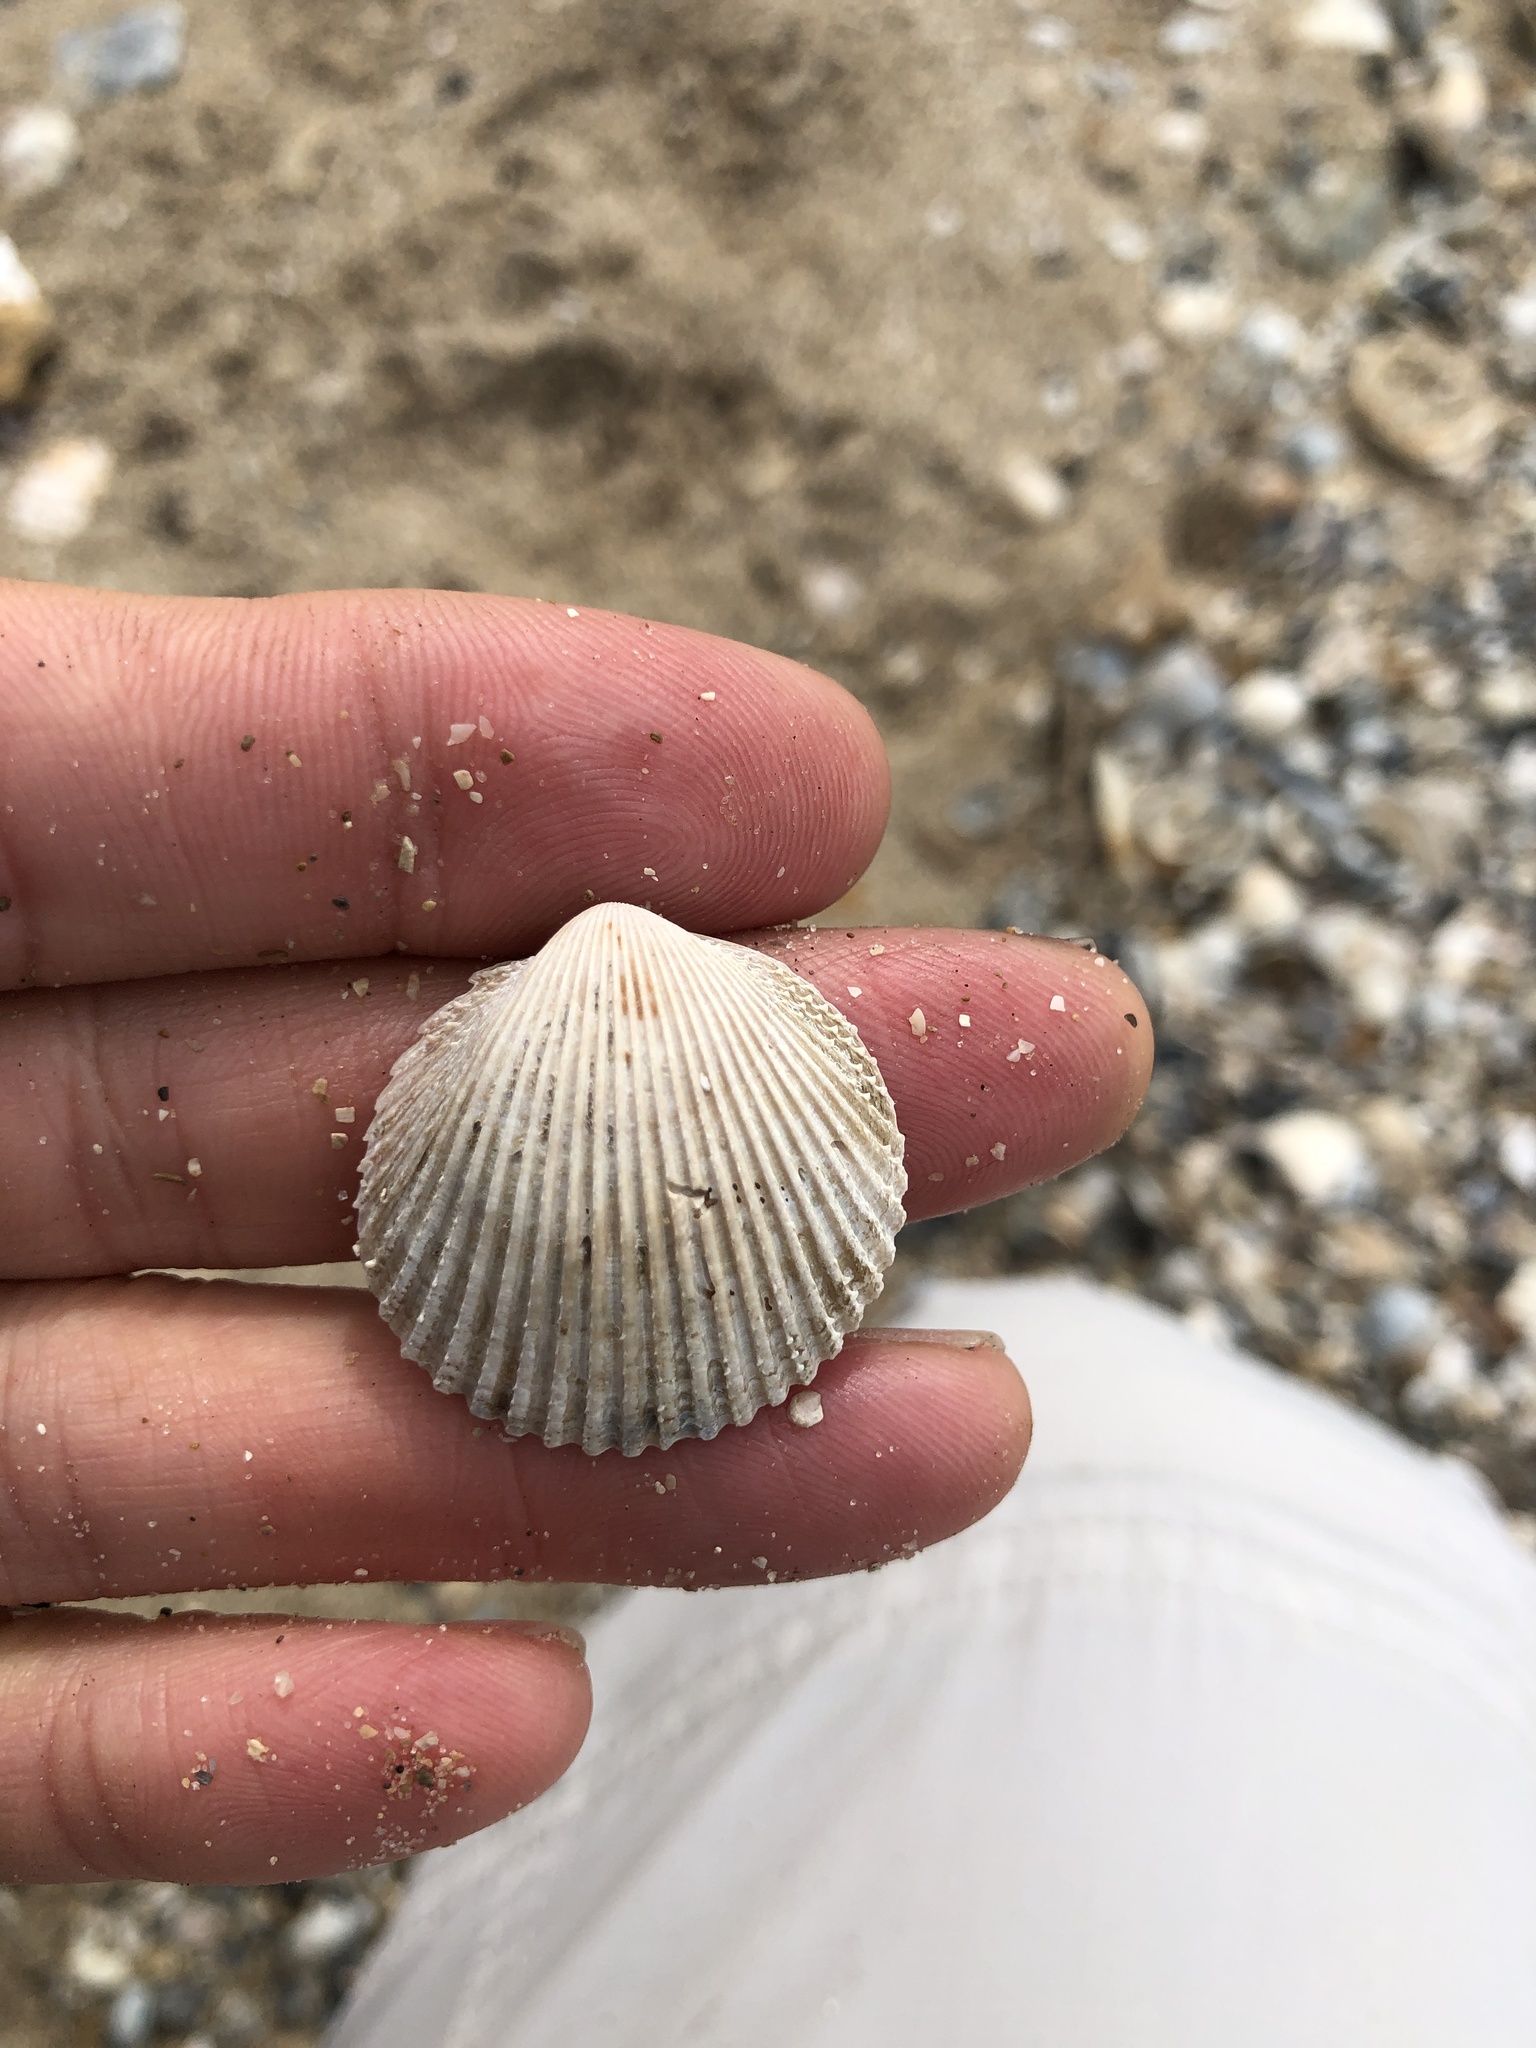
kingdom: Animalia
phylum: Mollusca
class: Bivalvia
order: Cardiida
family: Cardiidae
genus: Dallocardia
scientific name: Dallocardia muricata
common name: Yellow pricklycockle
